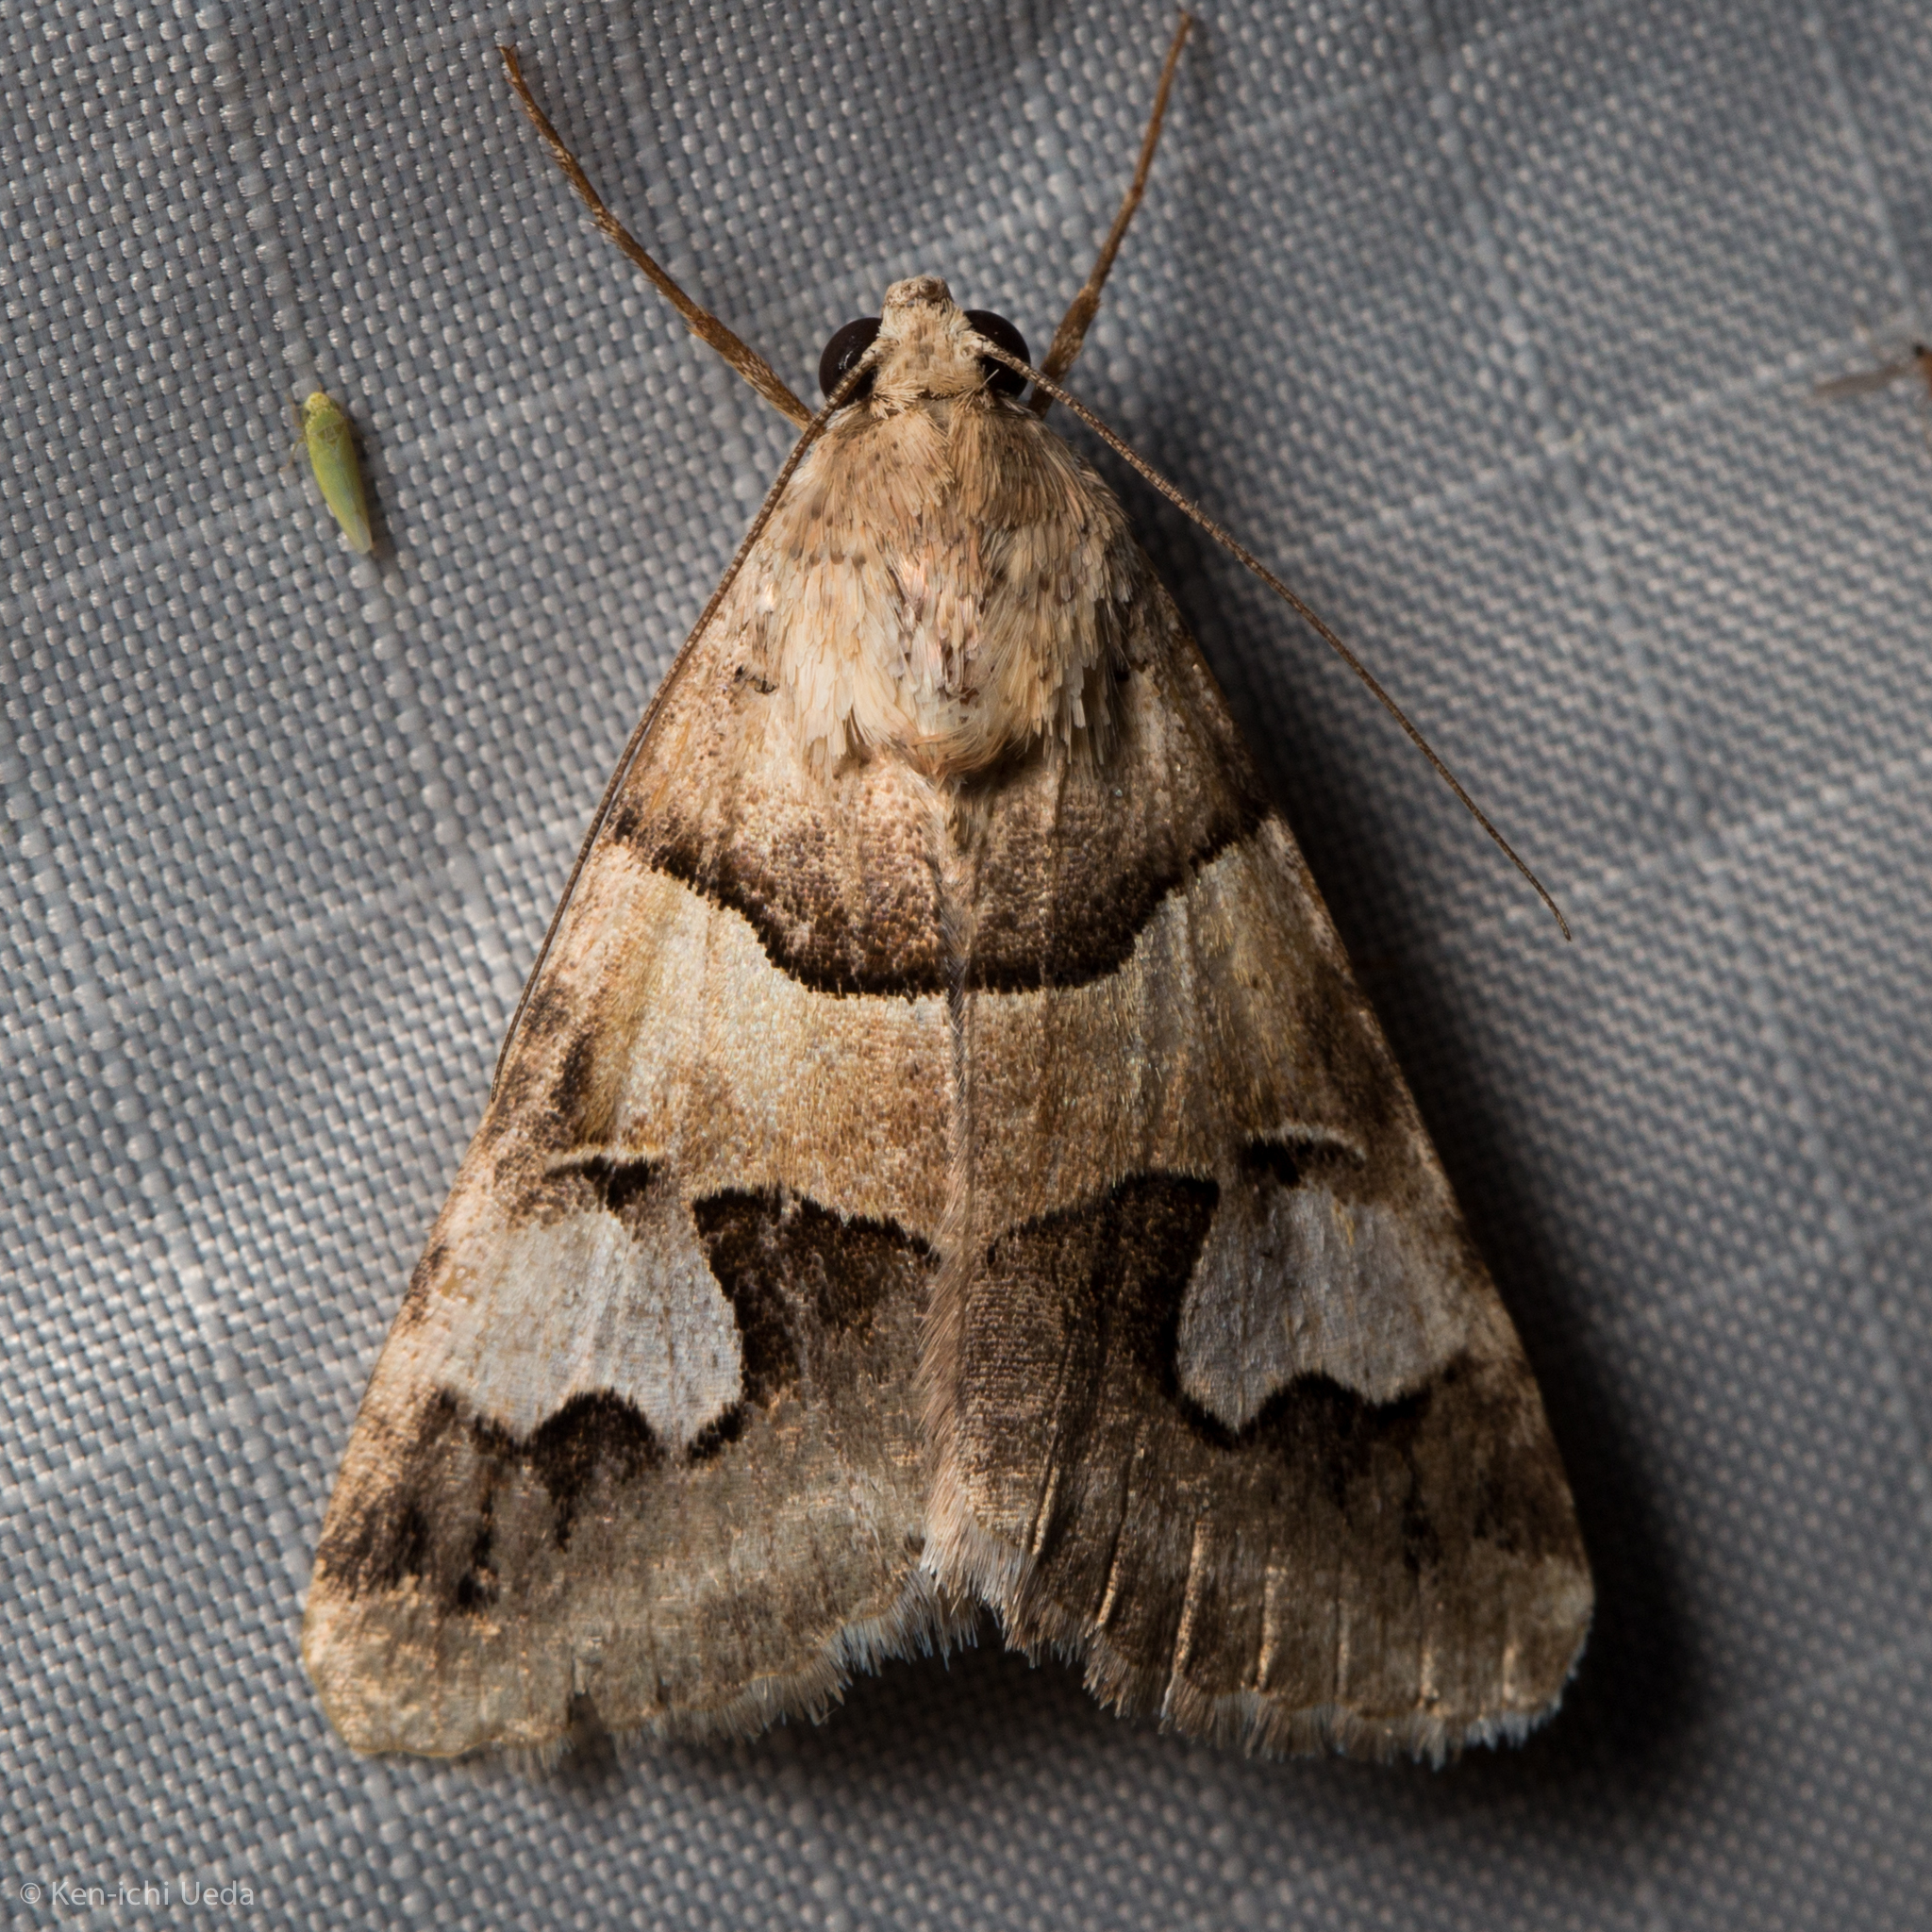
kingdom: Animalia
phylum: Arthropoda
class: Insecta
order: Lepidoptera
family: Erebidae
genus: Drasteria
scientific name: Drasteria pallescens
